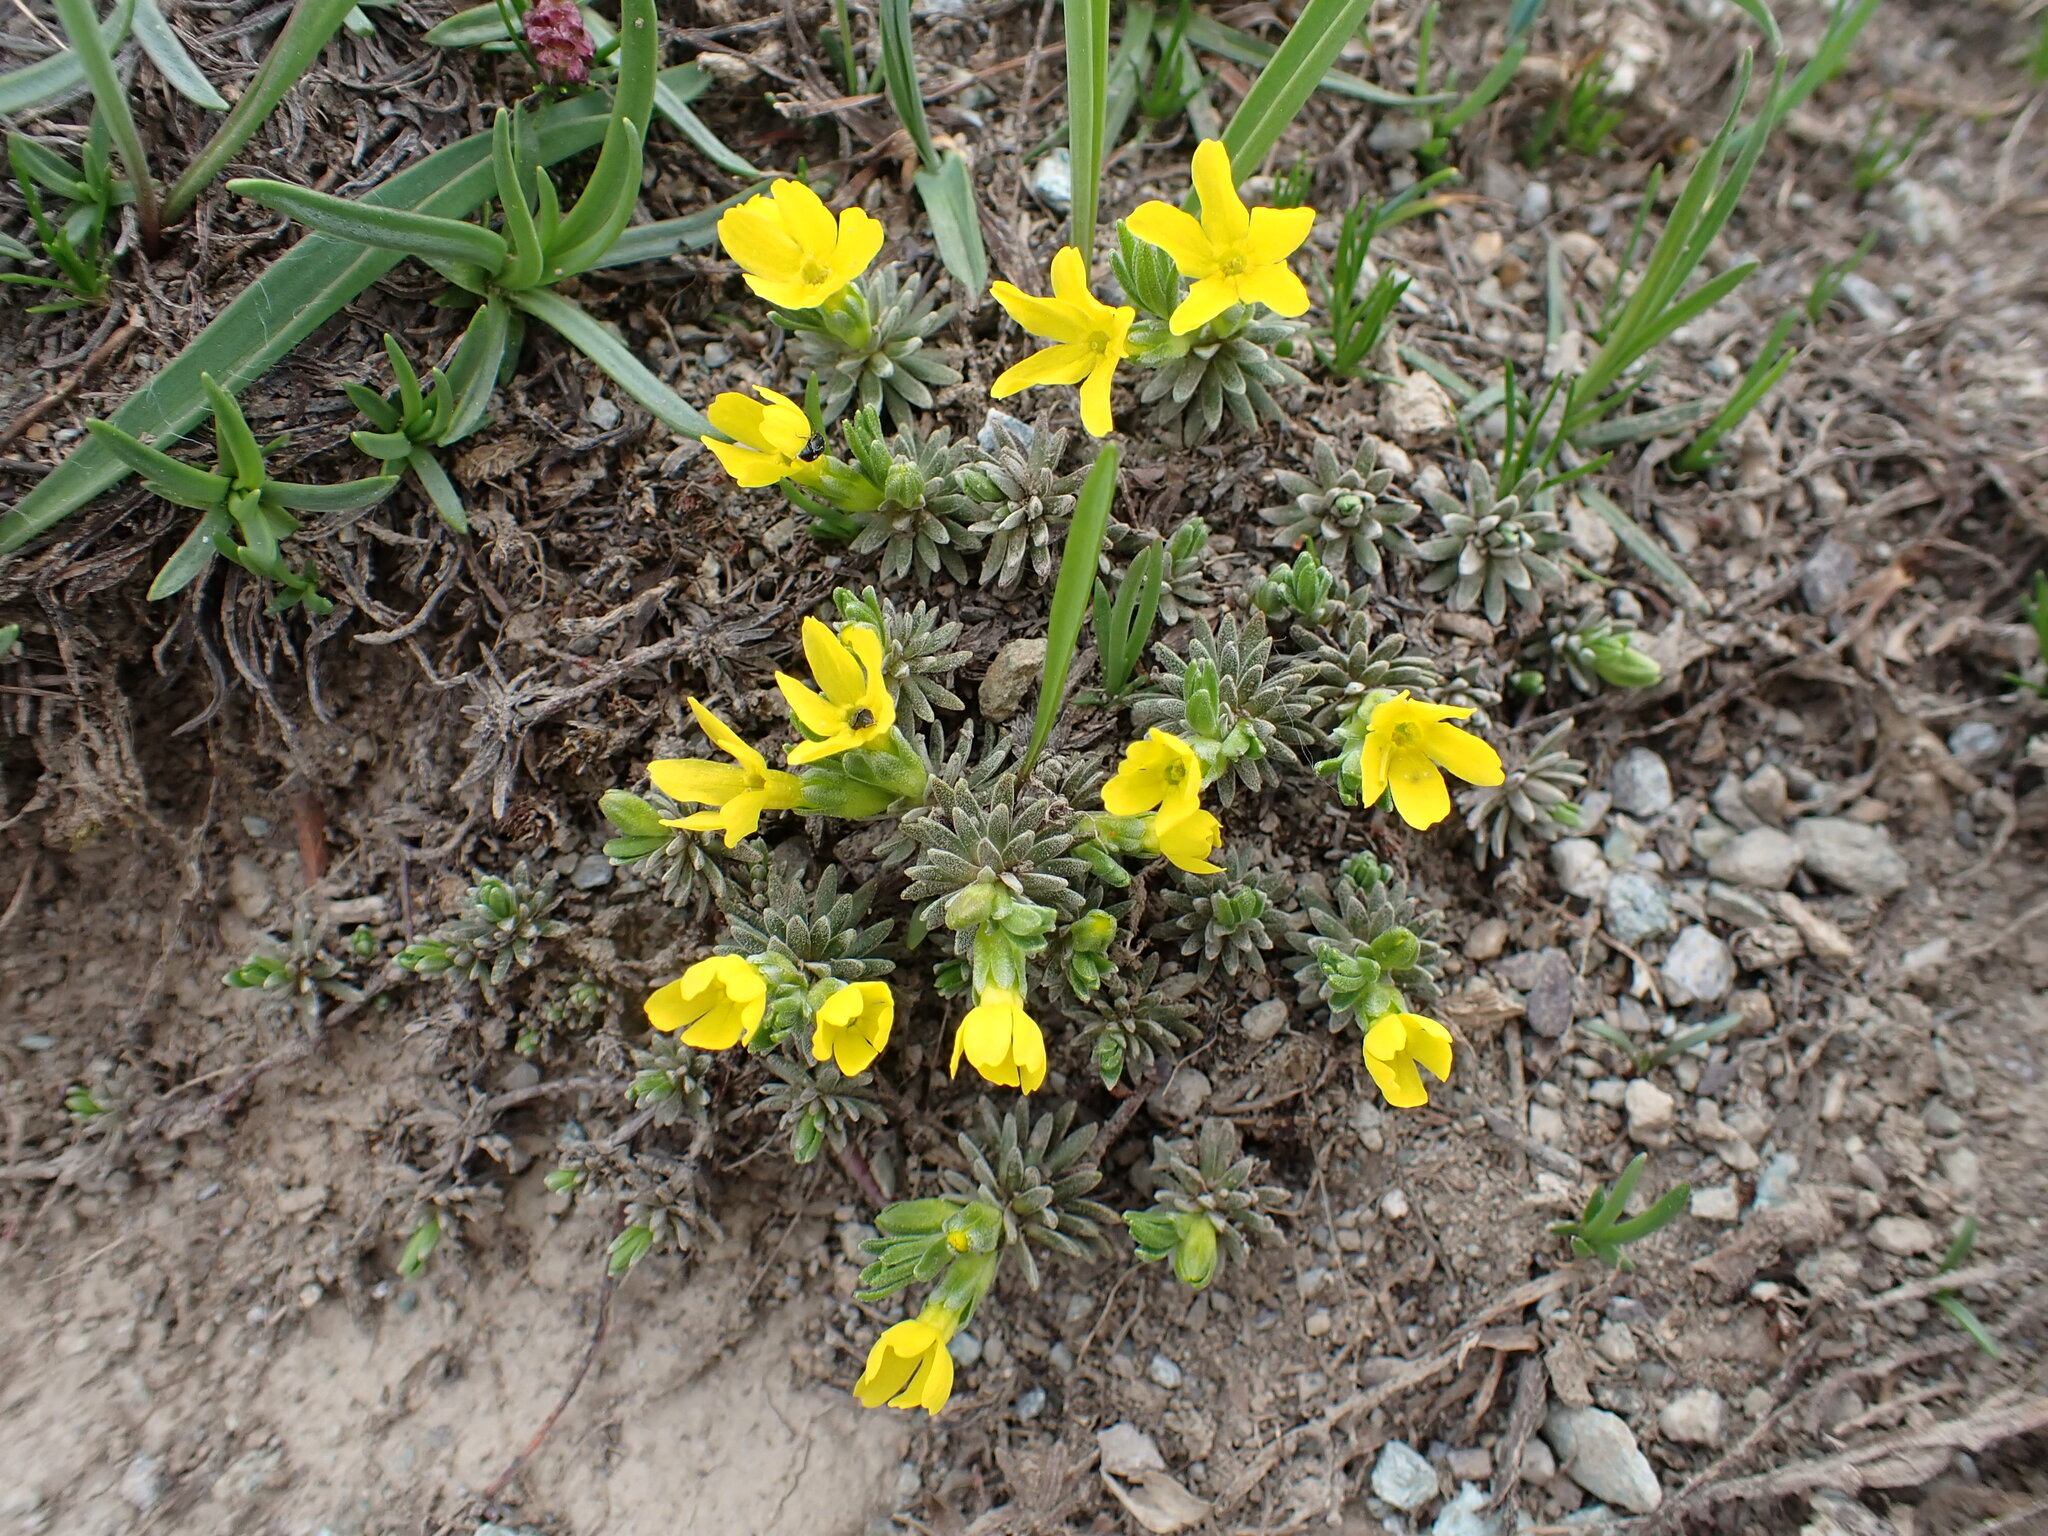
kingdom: Plantae
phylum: Tracheophyta
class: Magnoliopsida
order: Ericales
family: Primulaceae
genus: Androsace
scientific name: Androsace vitaliana
